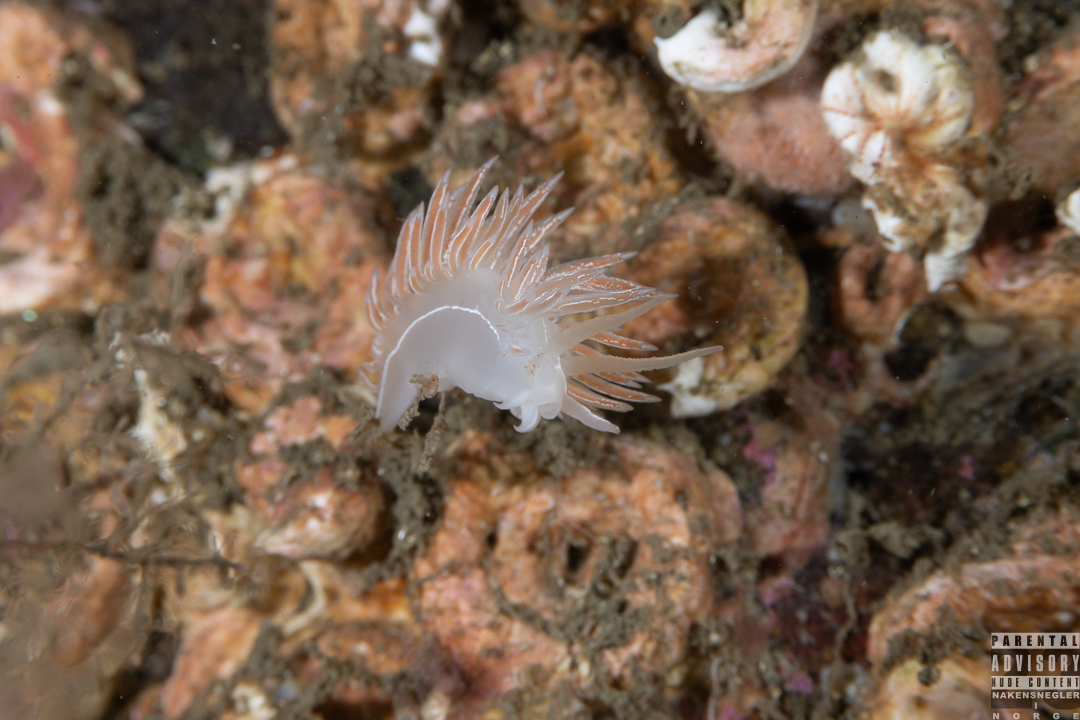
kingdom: Animalia
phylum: Mollusca
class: Gastropoda
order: Nudibranchia
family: Coryphellidae
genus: Coryphella
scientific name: Coryphella chriskaugei
